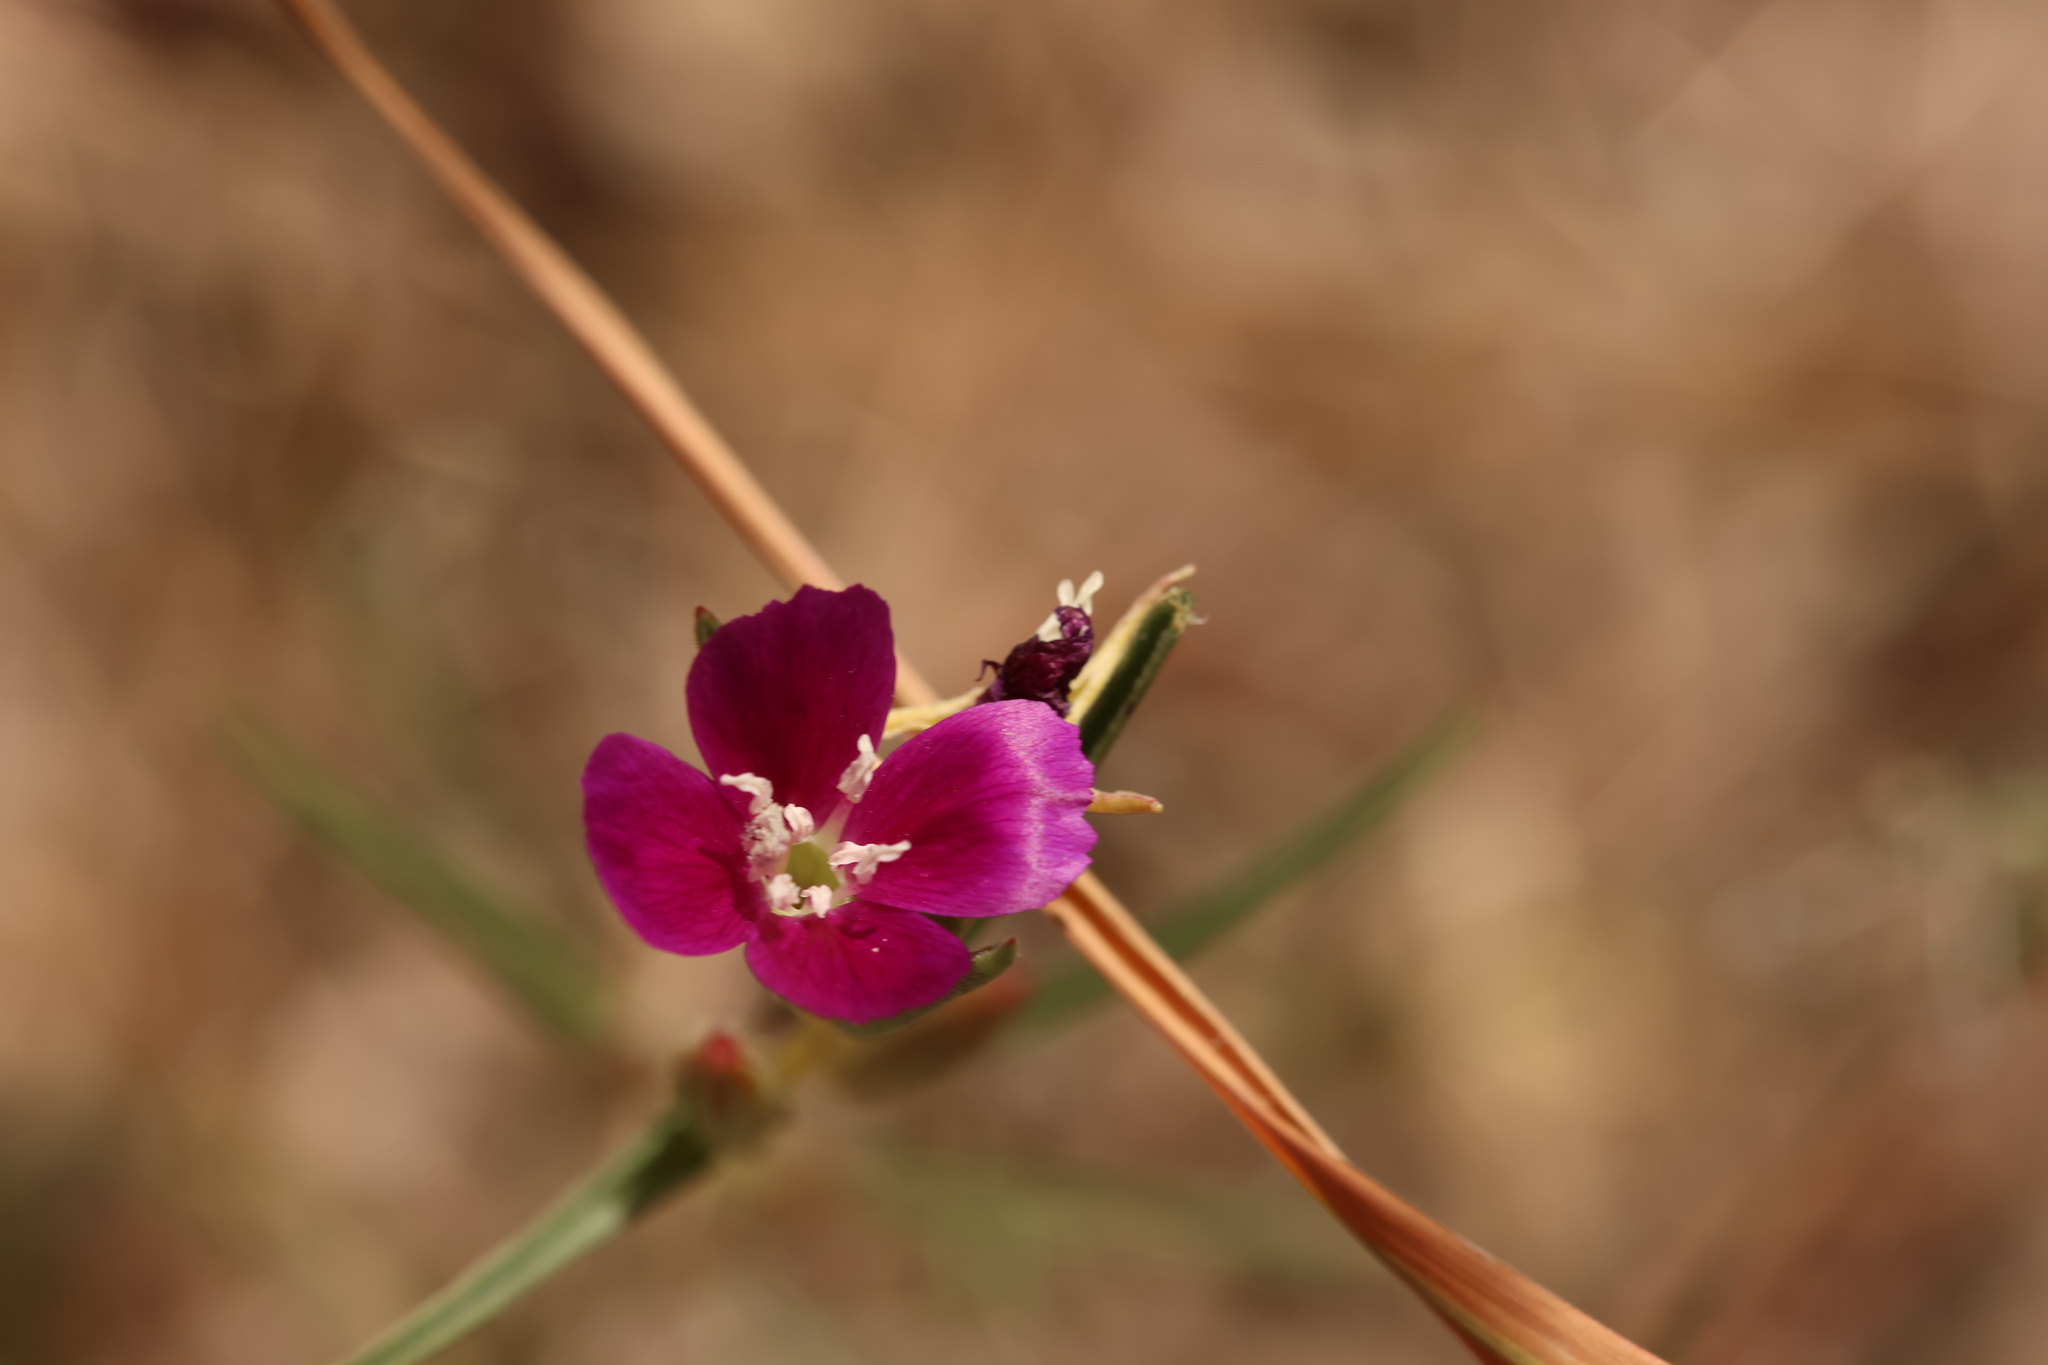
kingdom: Plantae
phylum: Tracheophyta
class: Magnoliopsida
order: Myrtales
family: Onagraceae
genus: Clarkia
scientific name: Clarkia purpurea
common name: Purple clarkia
